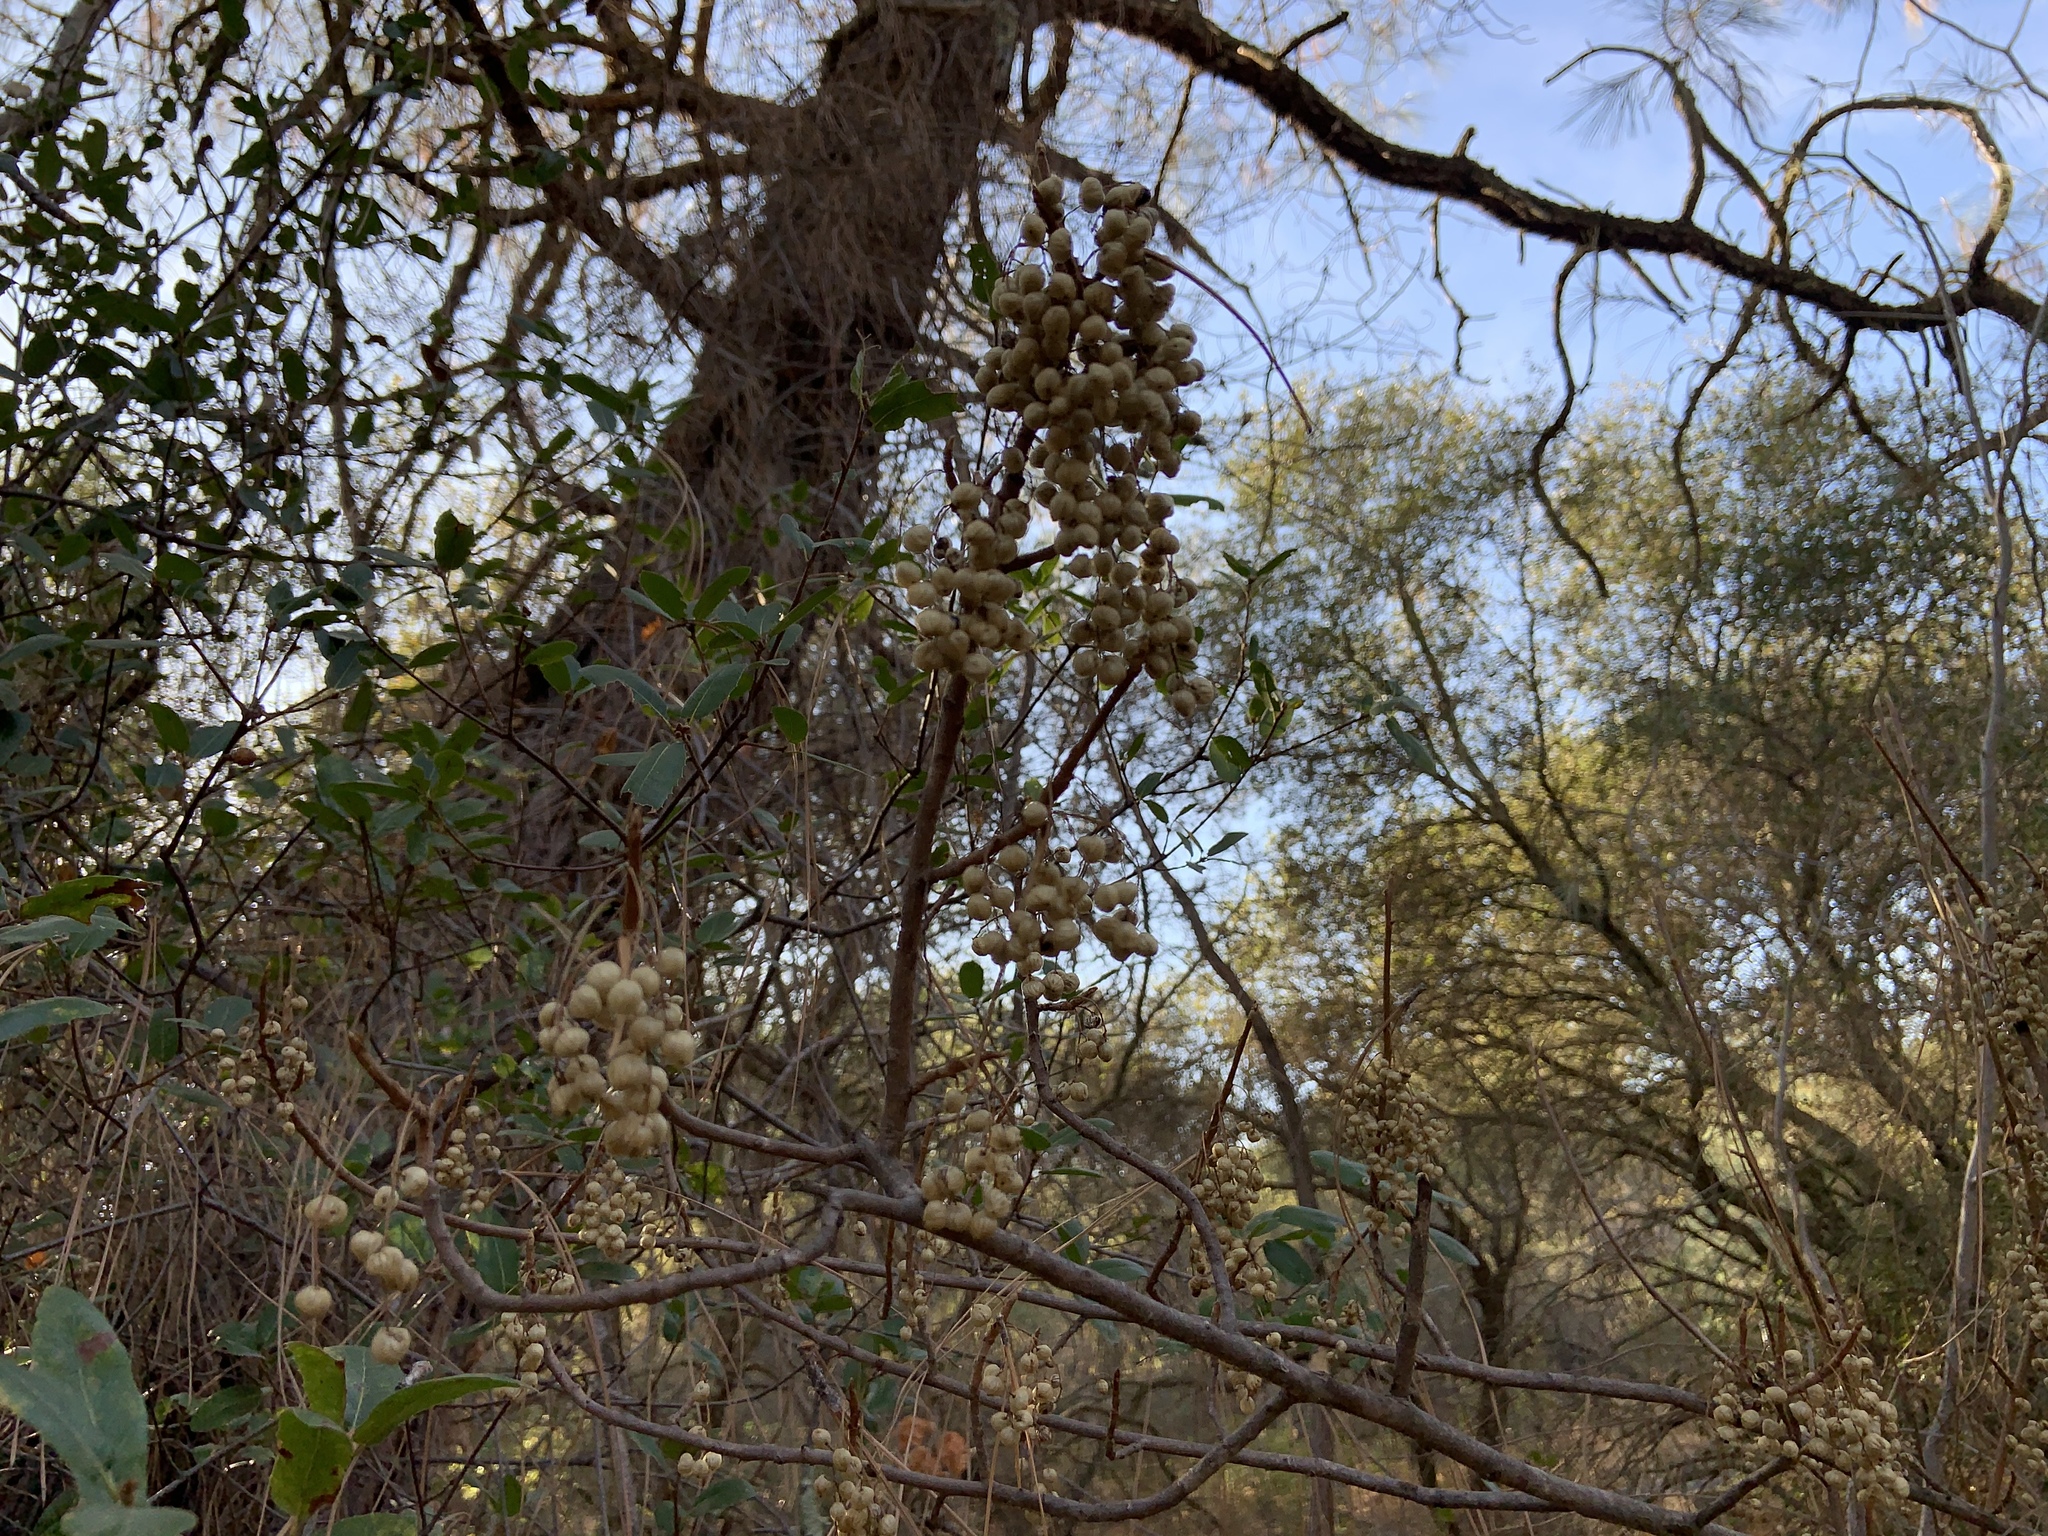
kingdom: Plantae
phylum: Tracheophyta
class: Magnoliopsida
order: Sapindales
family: Anacardiaceae
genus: Toxicodendron
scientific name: Toxicodendron diversilobum
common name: Pacific poison-oak
